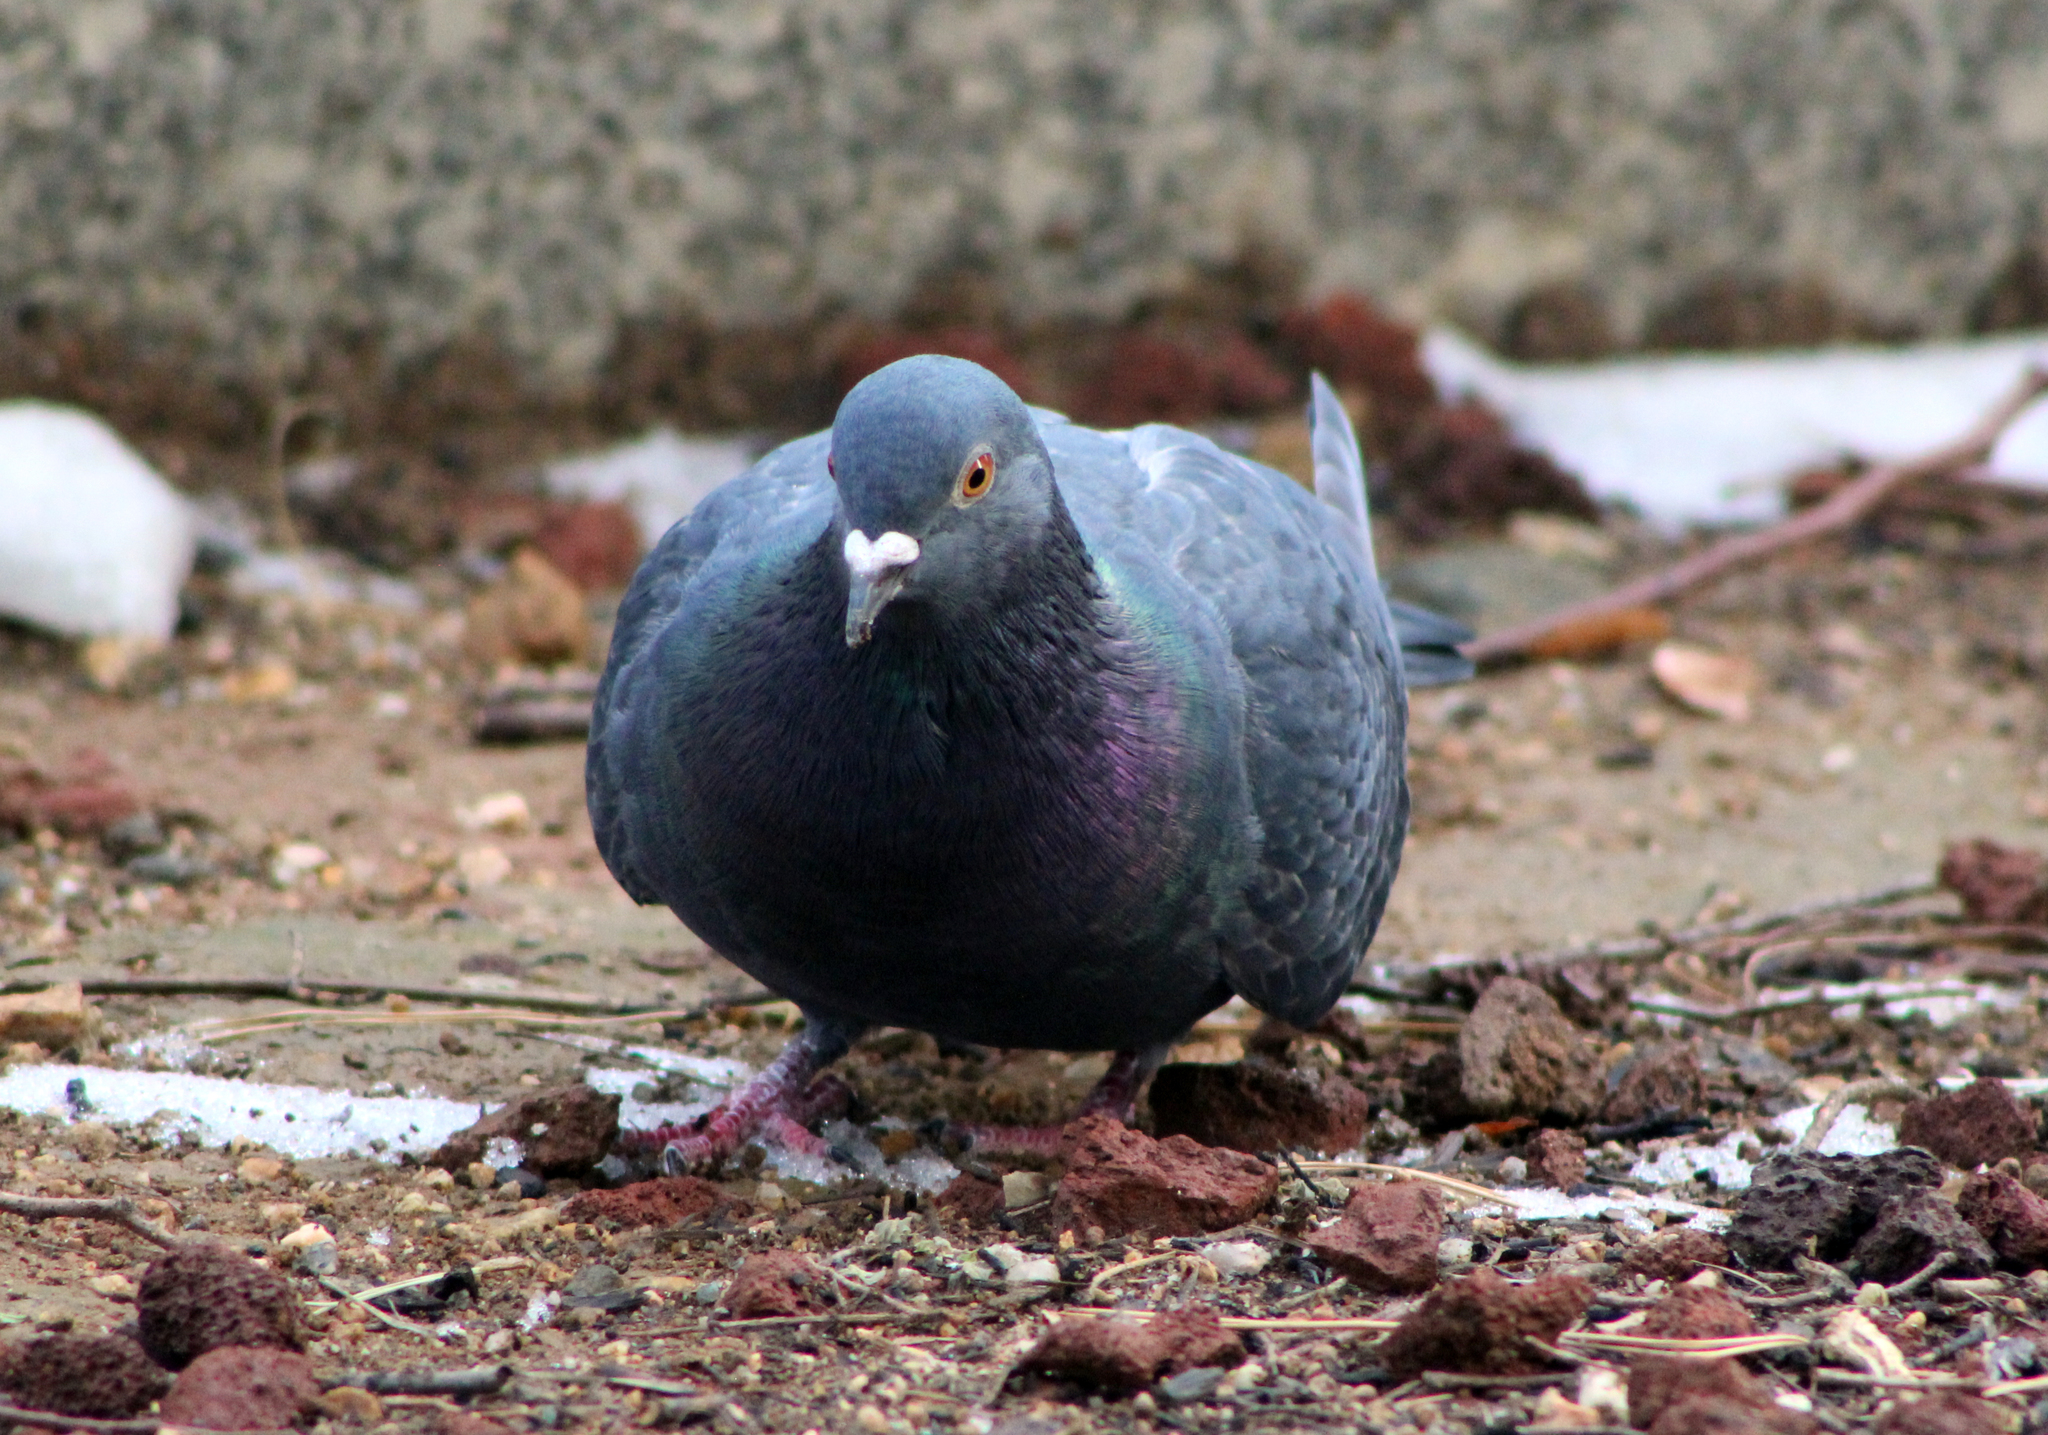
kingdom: Animalia
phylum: Chordata
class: Aves
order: Columbiformes
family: Columbidae
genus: Columba
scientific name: Columba livia
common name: Rock pigeon
